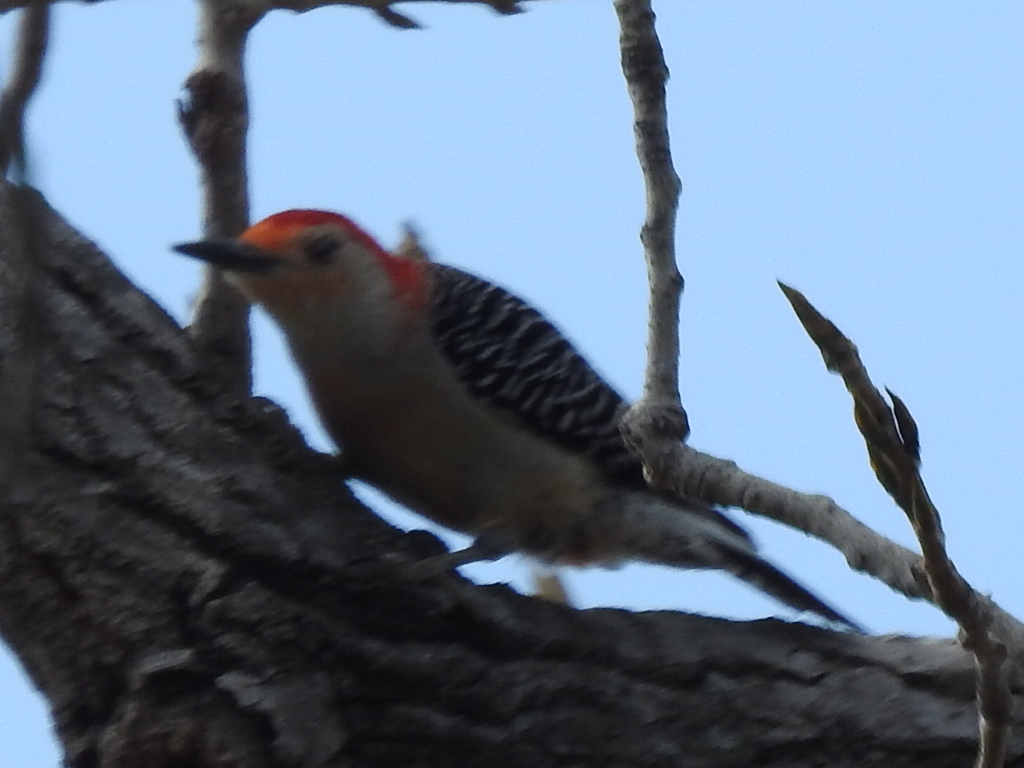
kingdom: Animalia
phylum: Chordata
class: Aves
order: Piciformes
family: Picidae
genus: Melanerpes
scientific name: Melanerpes carolinus
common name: Red-bellied woodpecker
